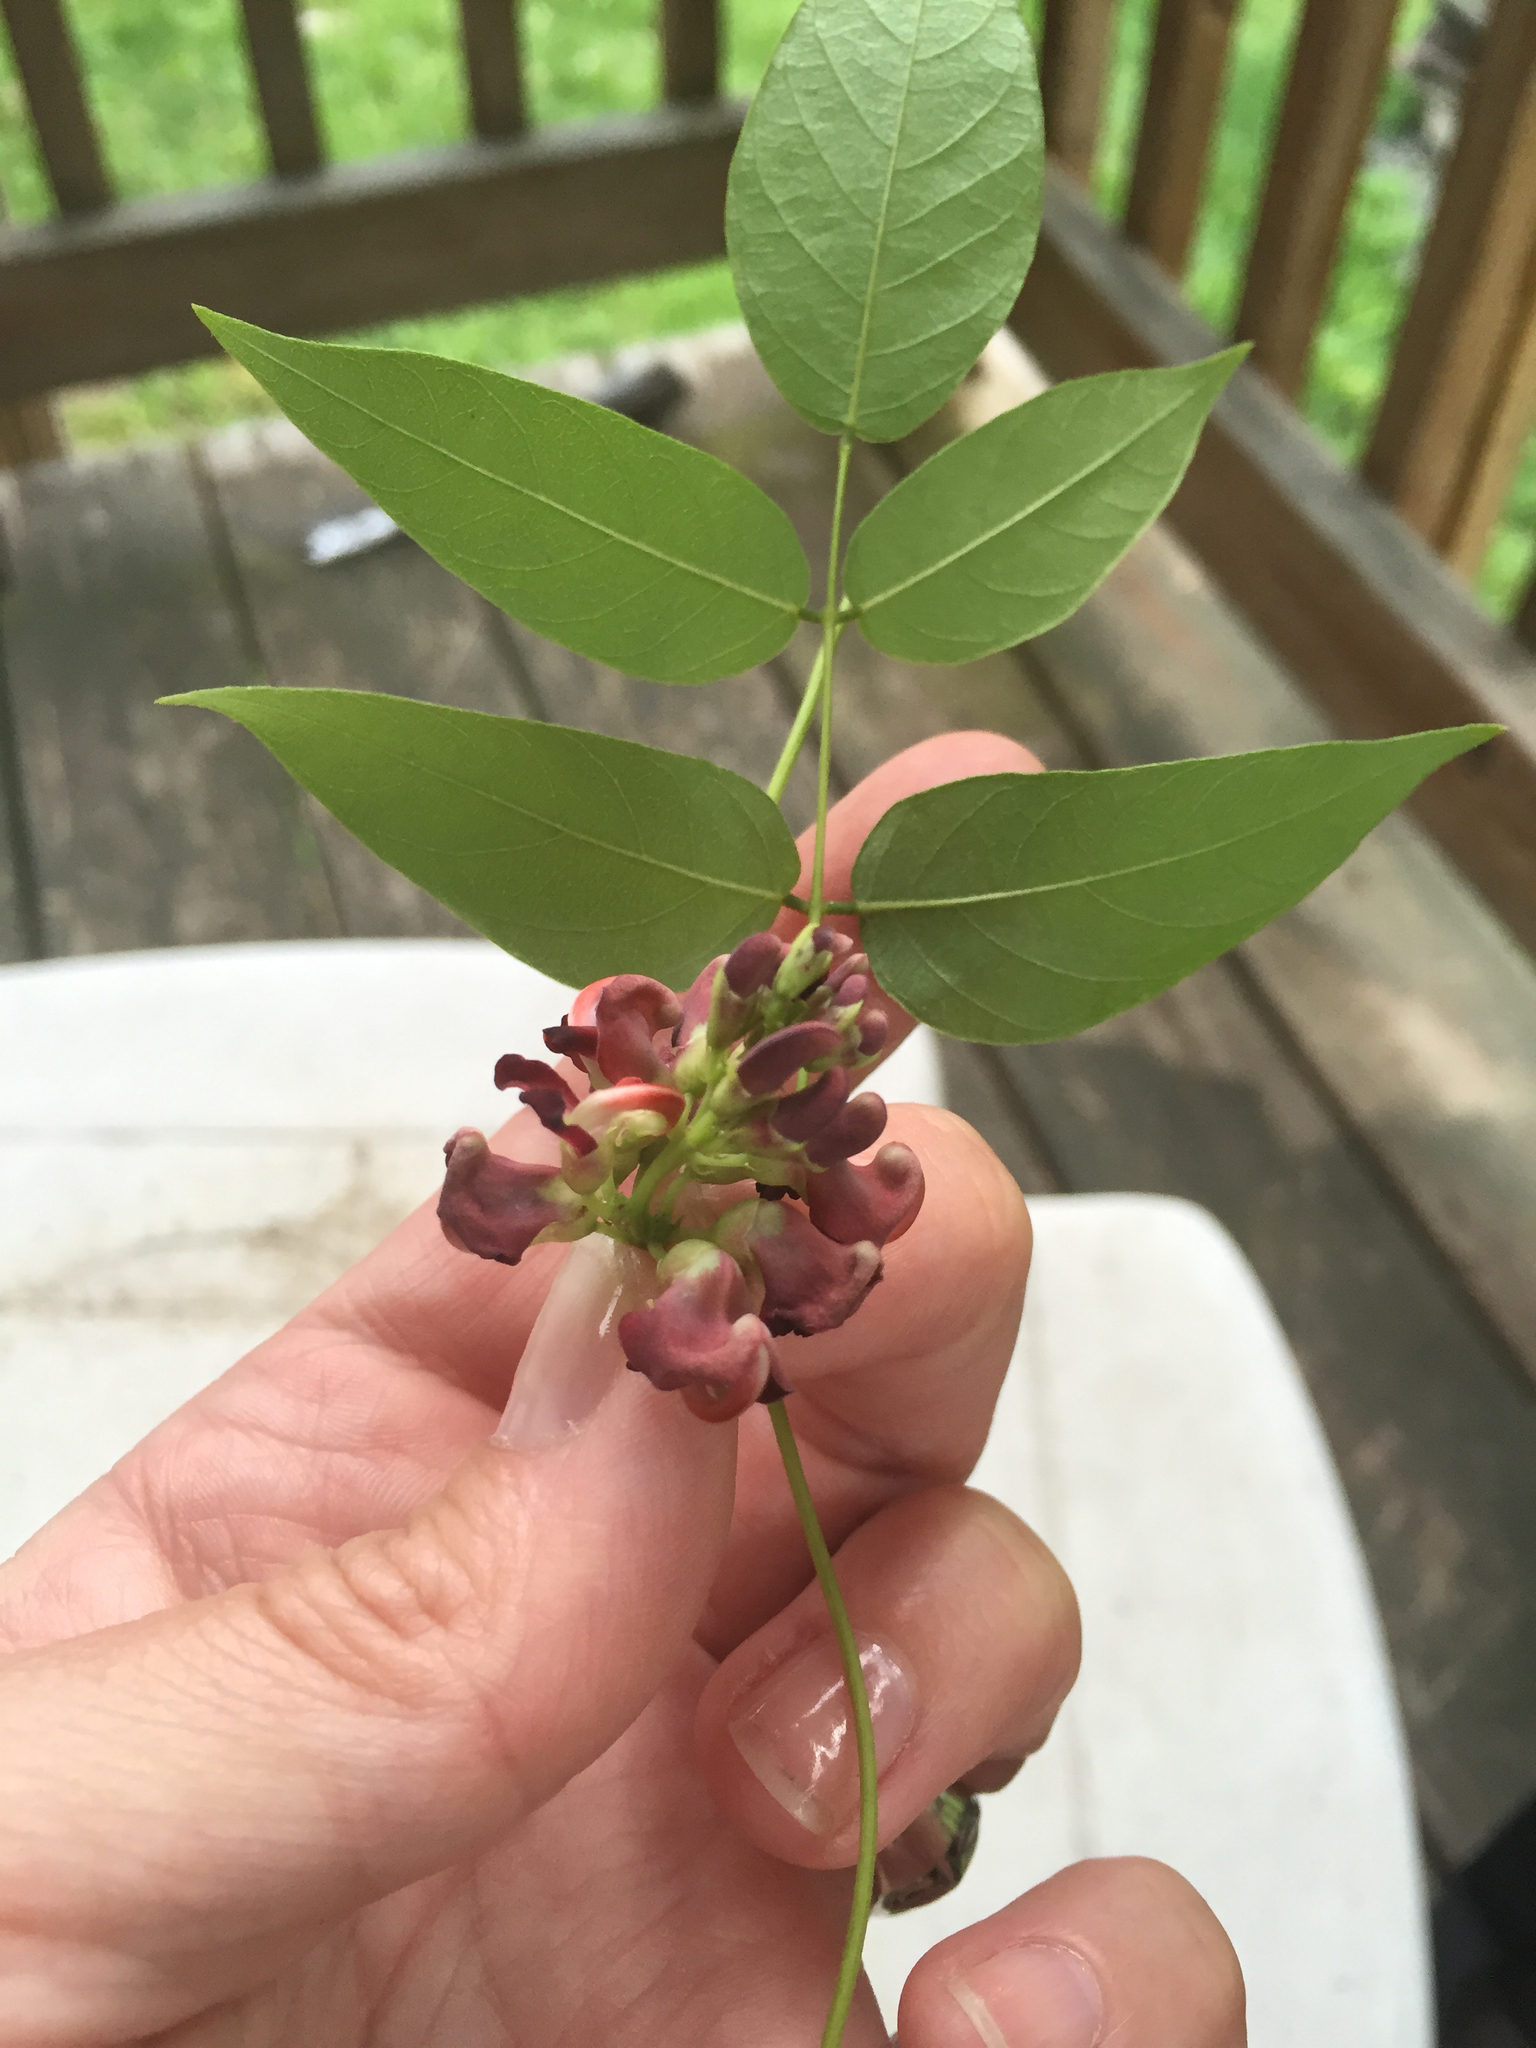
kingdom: Plantae
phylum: Tracheophyta
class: Magnoliopsida
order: Fabales
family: Fabaceae
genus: Apios
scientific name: Apios americana
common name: American potato-bean
